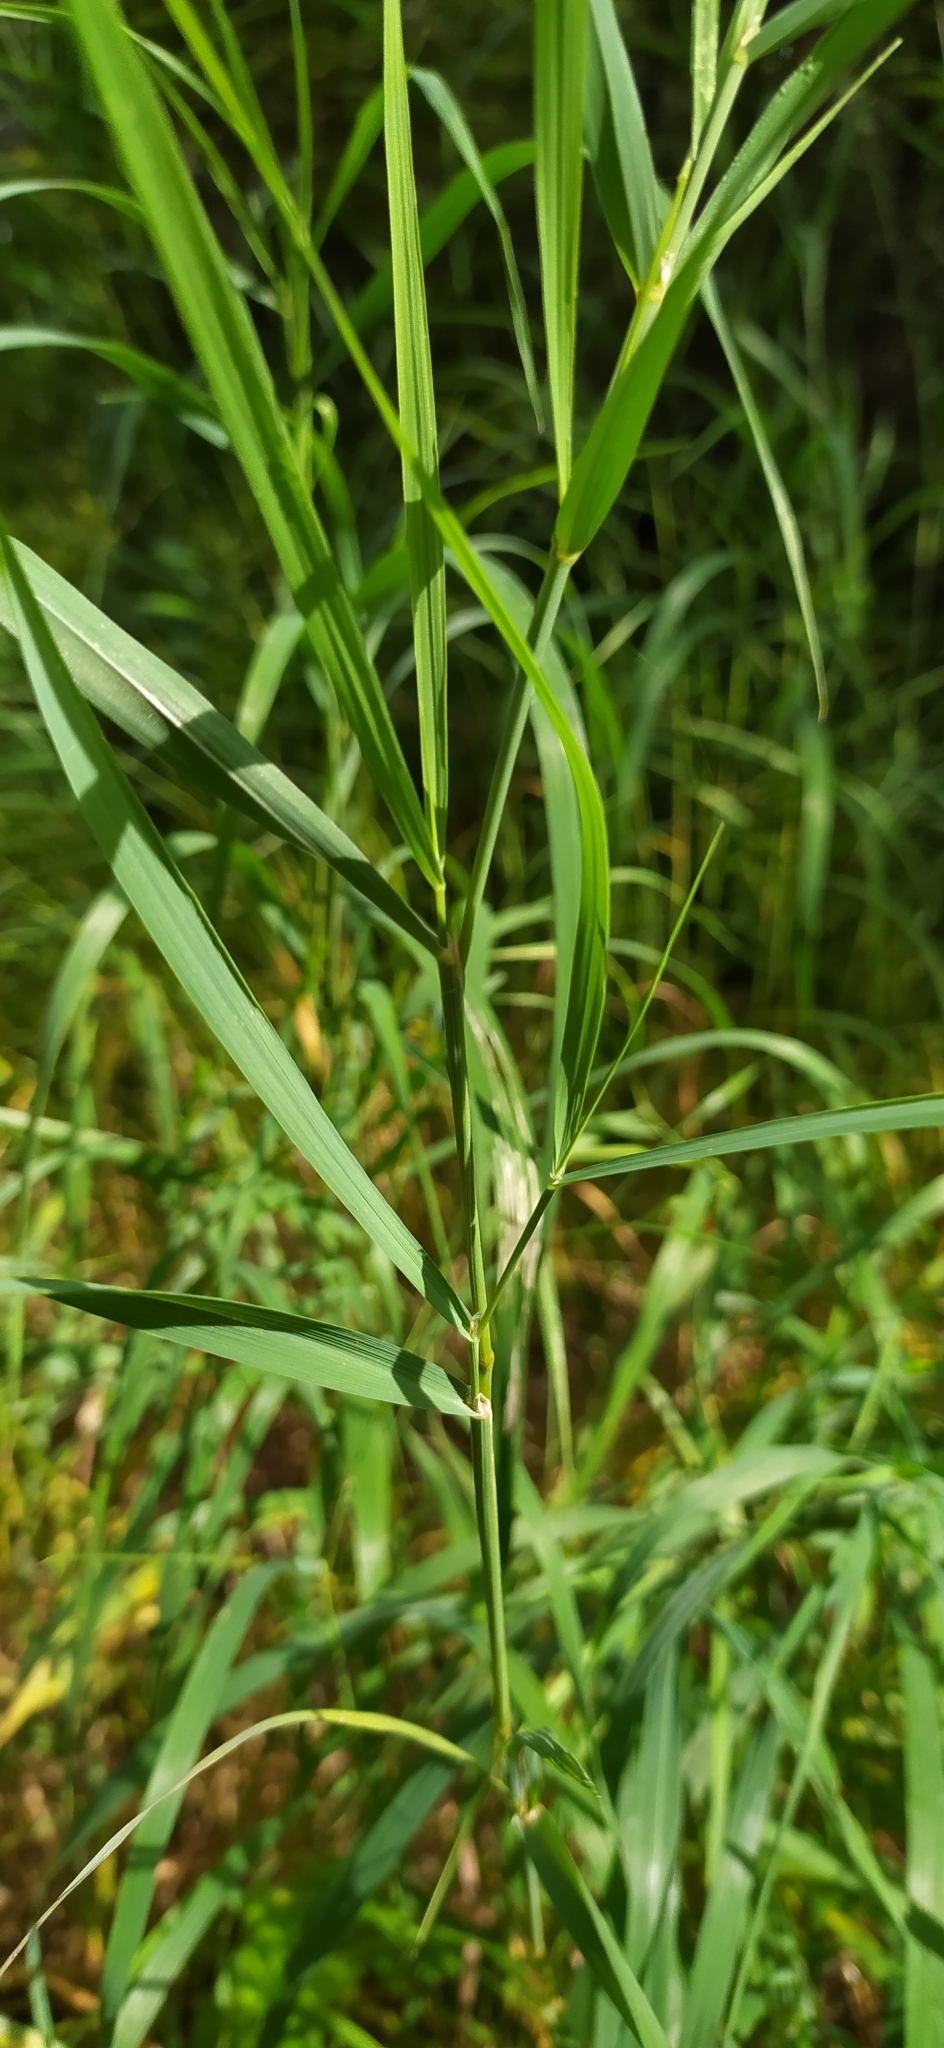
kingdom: Plantae
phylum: Tracheophyta
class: Liliopsida
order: Poales
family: Poaceae
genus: Calamagrostis
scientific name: Calamagrostis purpurea
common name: Scandinavian small-reed
